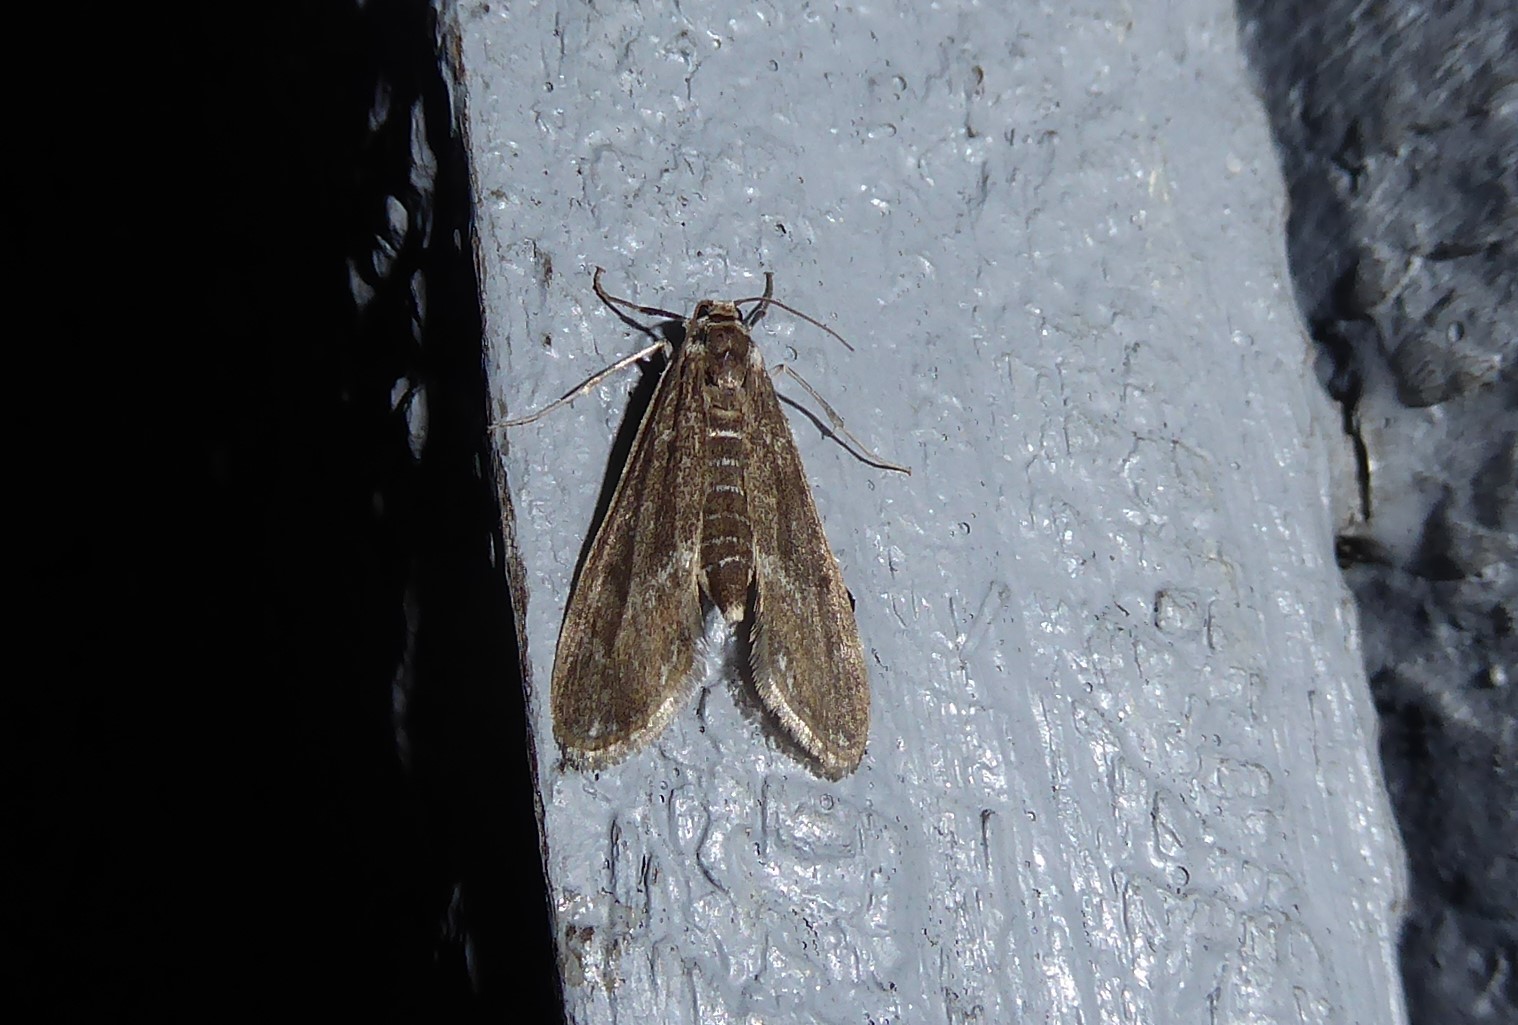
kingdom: Animalia
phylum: Arthropoda
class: Insecta
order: Lepidoptera
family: Crambidae
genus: Hygraula
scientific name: Hygraula nitens
